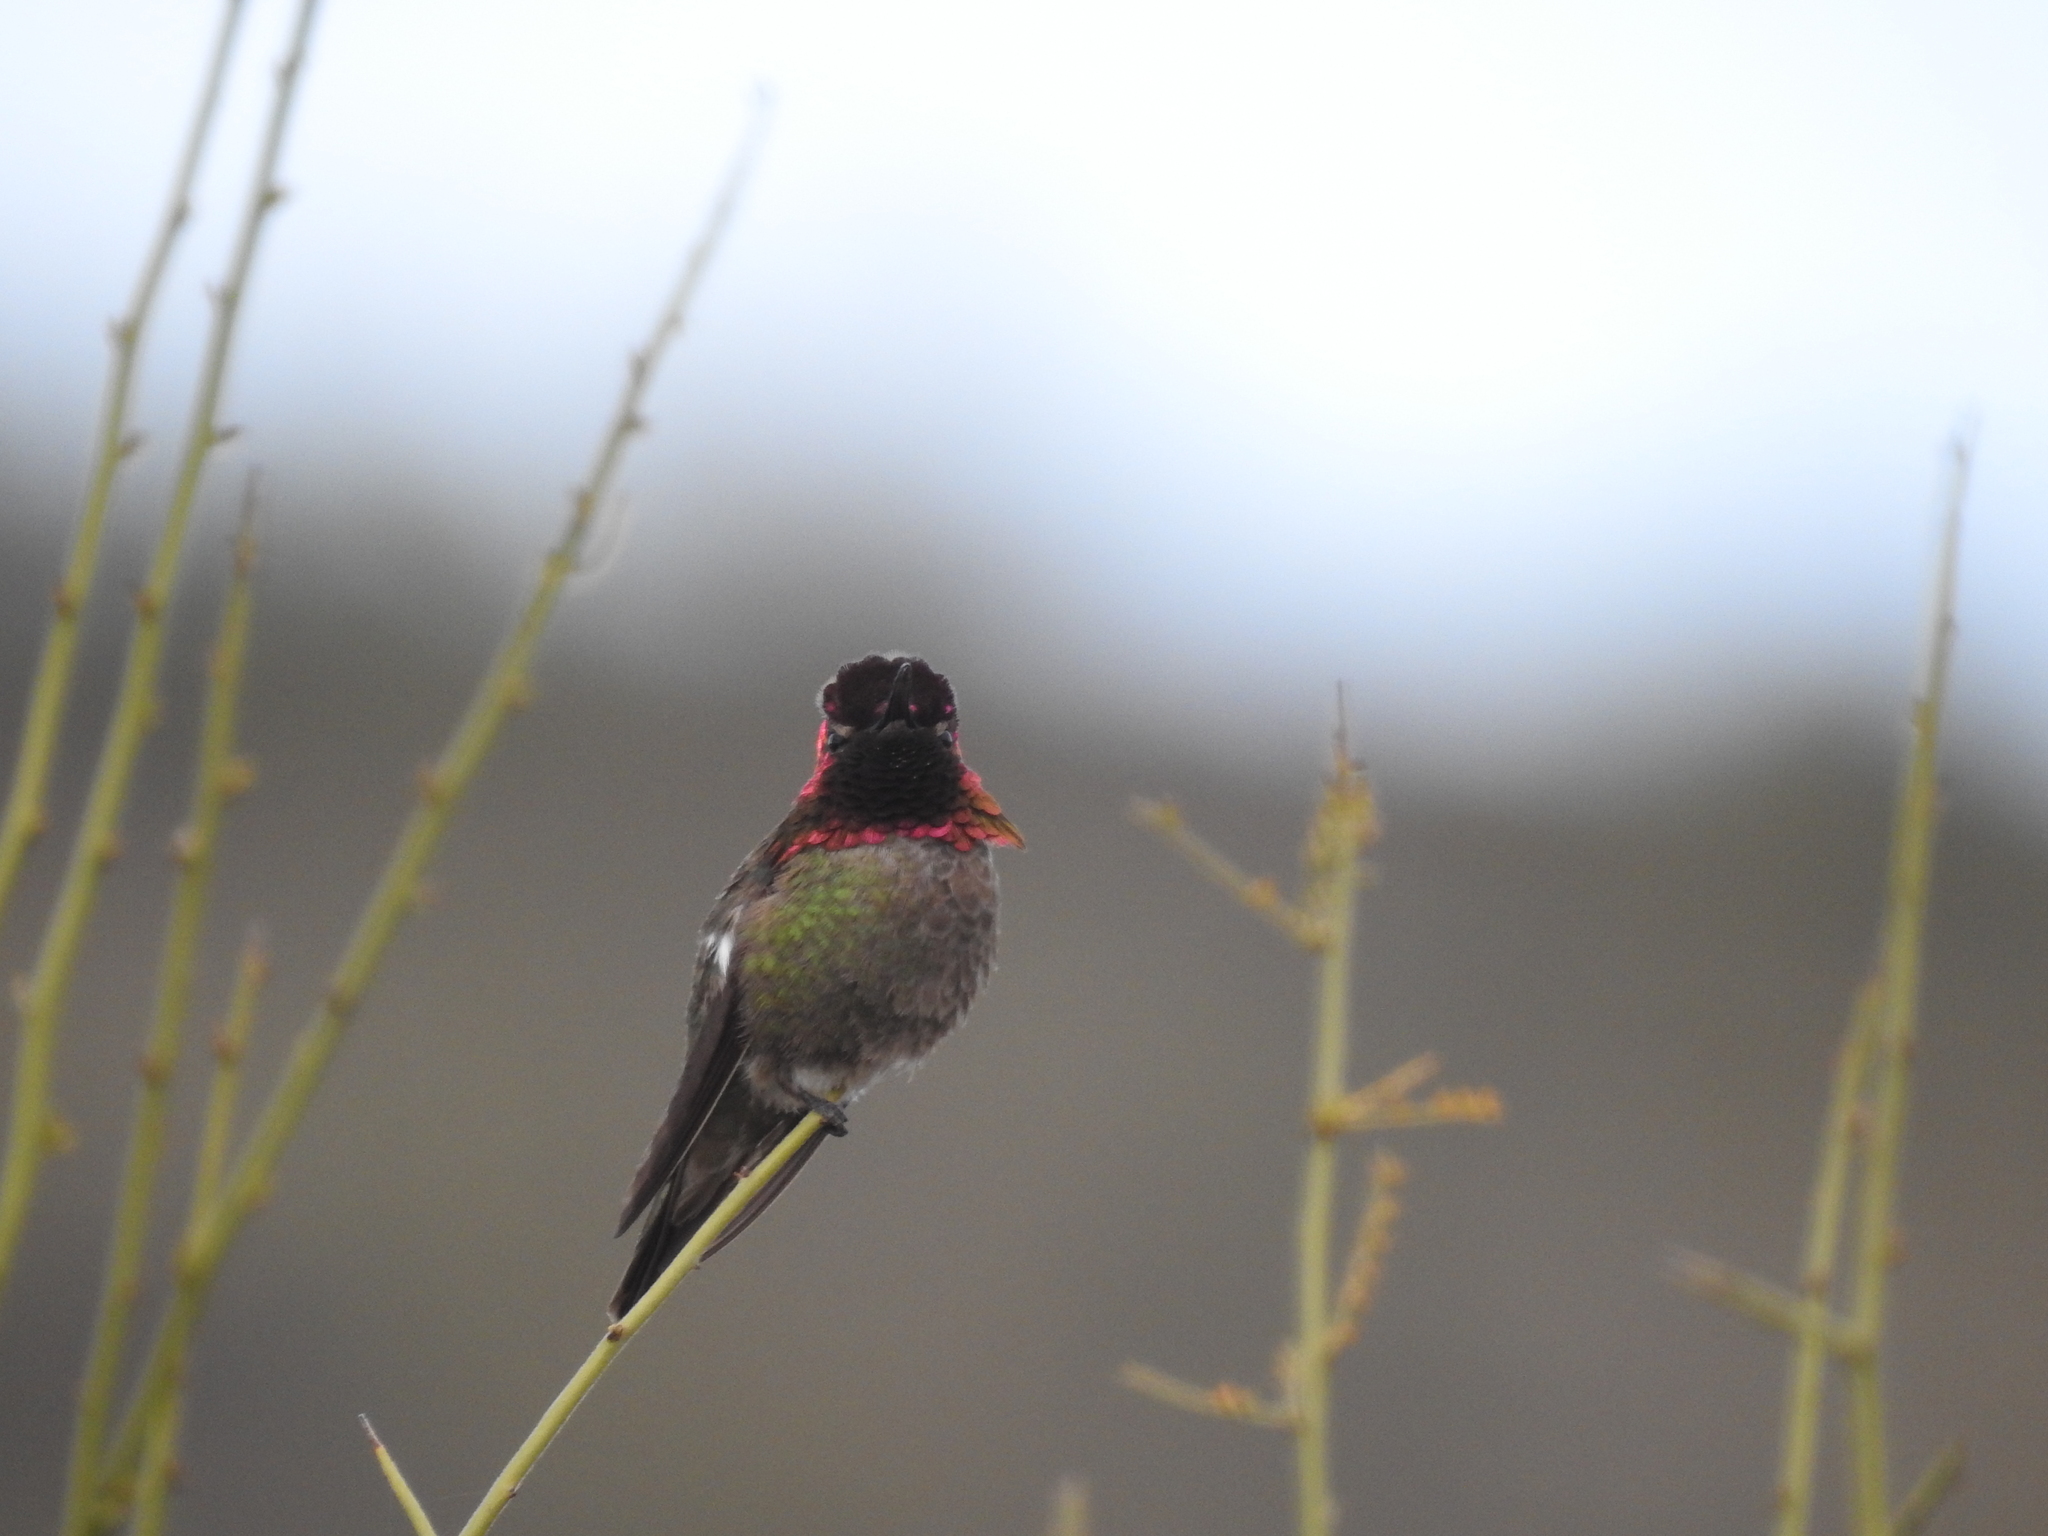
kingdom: Animalia
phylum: Chordata
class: Aves
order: Apodiformes
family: Trochilidae
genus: Calypte
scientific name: Calypte anna
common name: Anna's hummingbird
